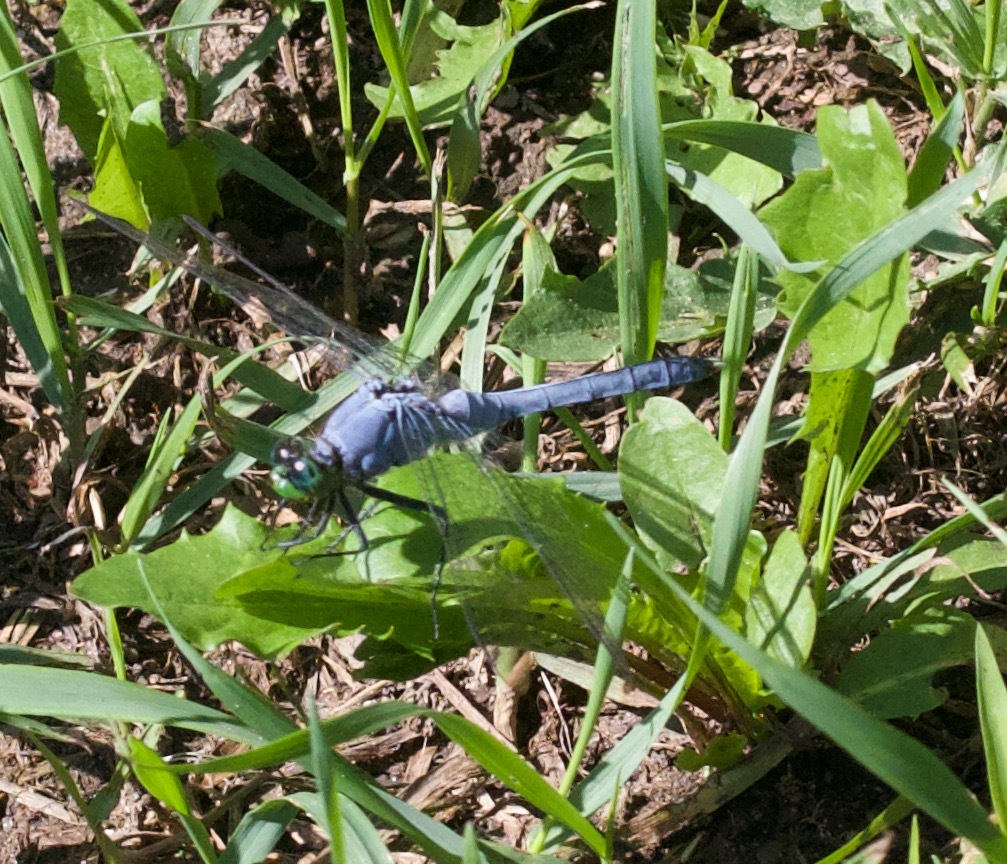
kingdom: Animalia
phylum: Arthropoda
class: Insecta
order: Odonata
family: Libellulidae
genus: Erythemis
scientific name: Erythemis simplicicollis
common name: Eastern pondhawk
